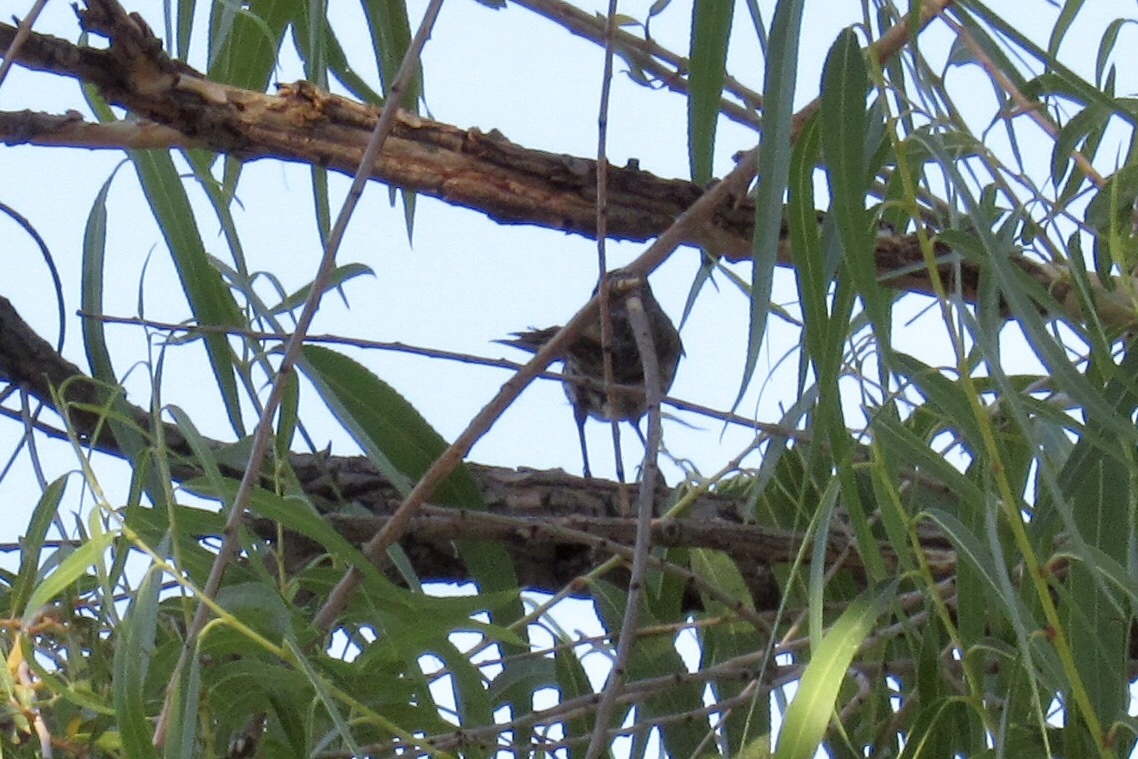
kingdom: Animalia
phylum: Chordata
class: Aves
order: Passeriformes
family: Passerellidae
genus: Melospiza
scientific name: Melospiza melodia
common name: Song sparrow
